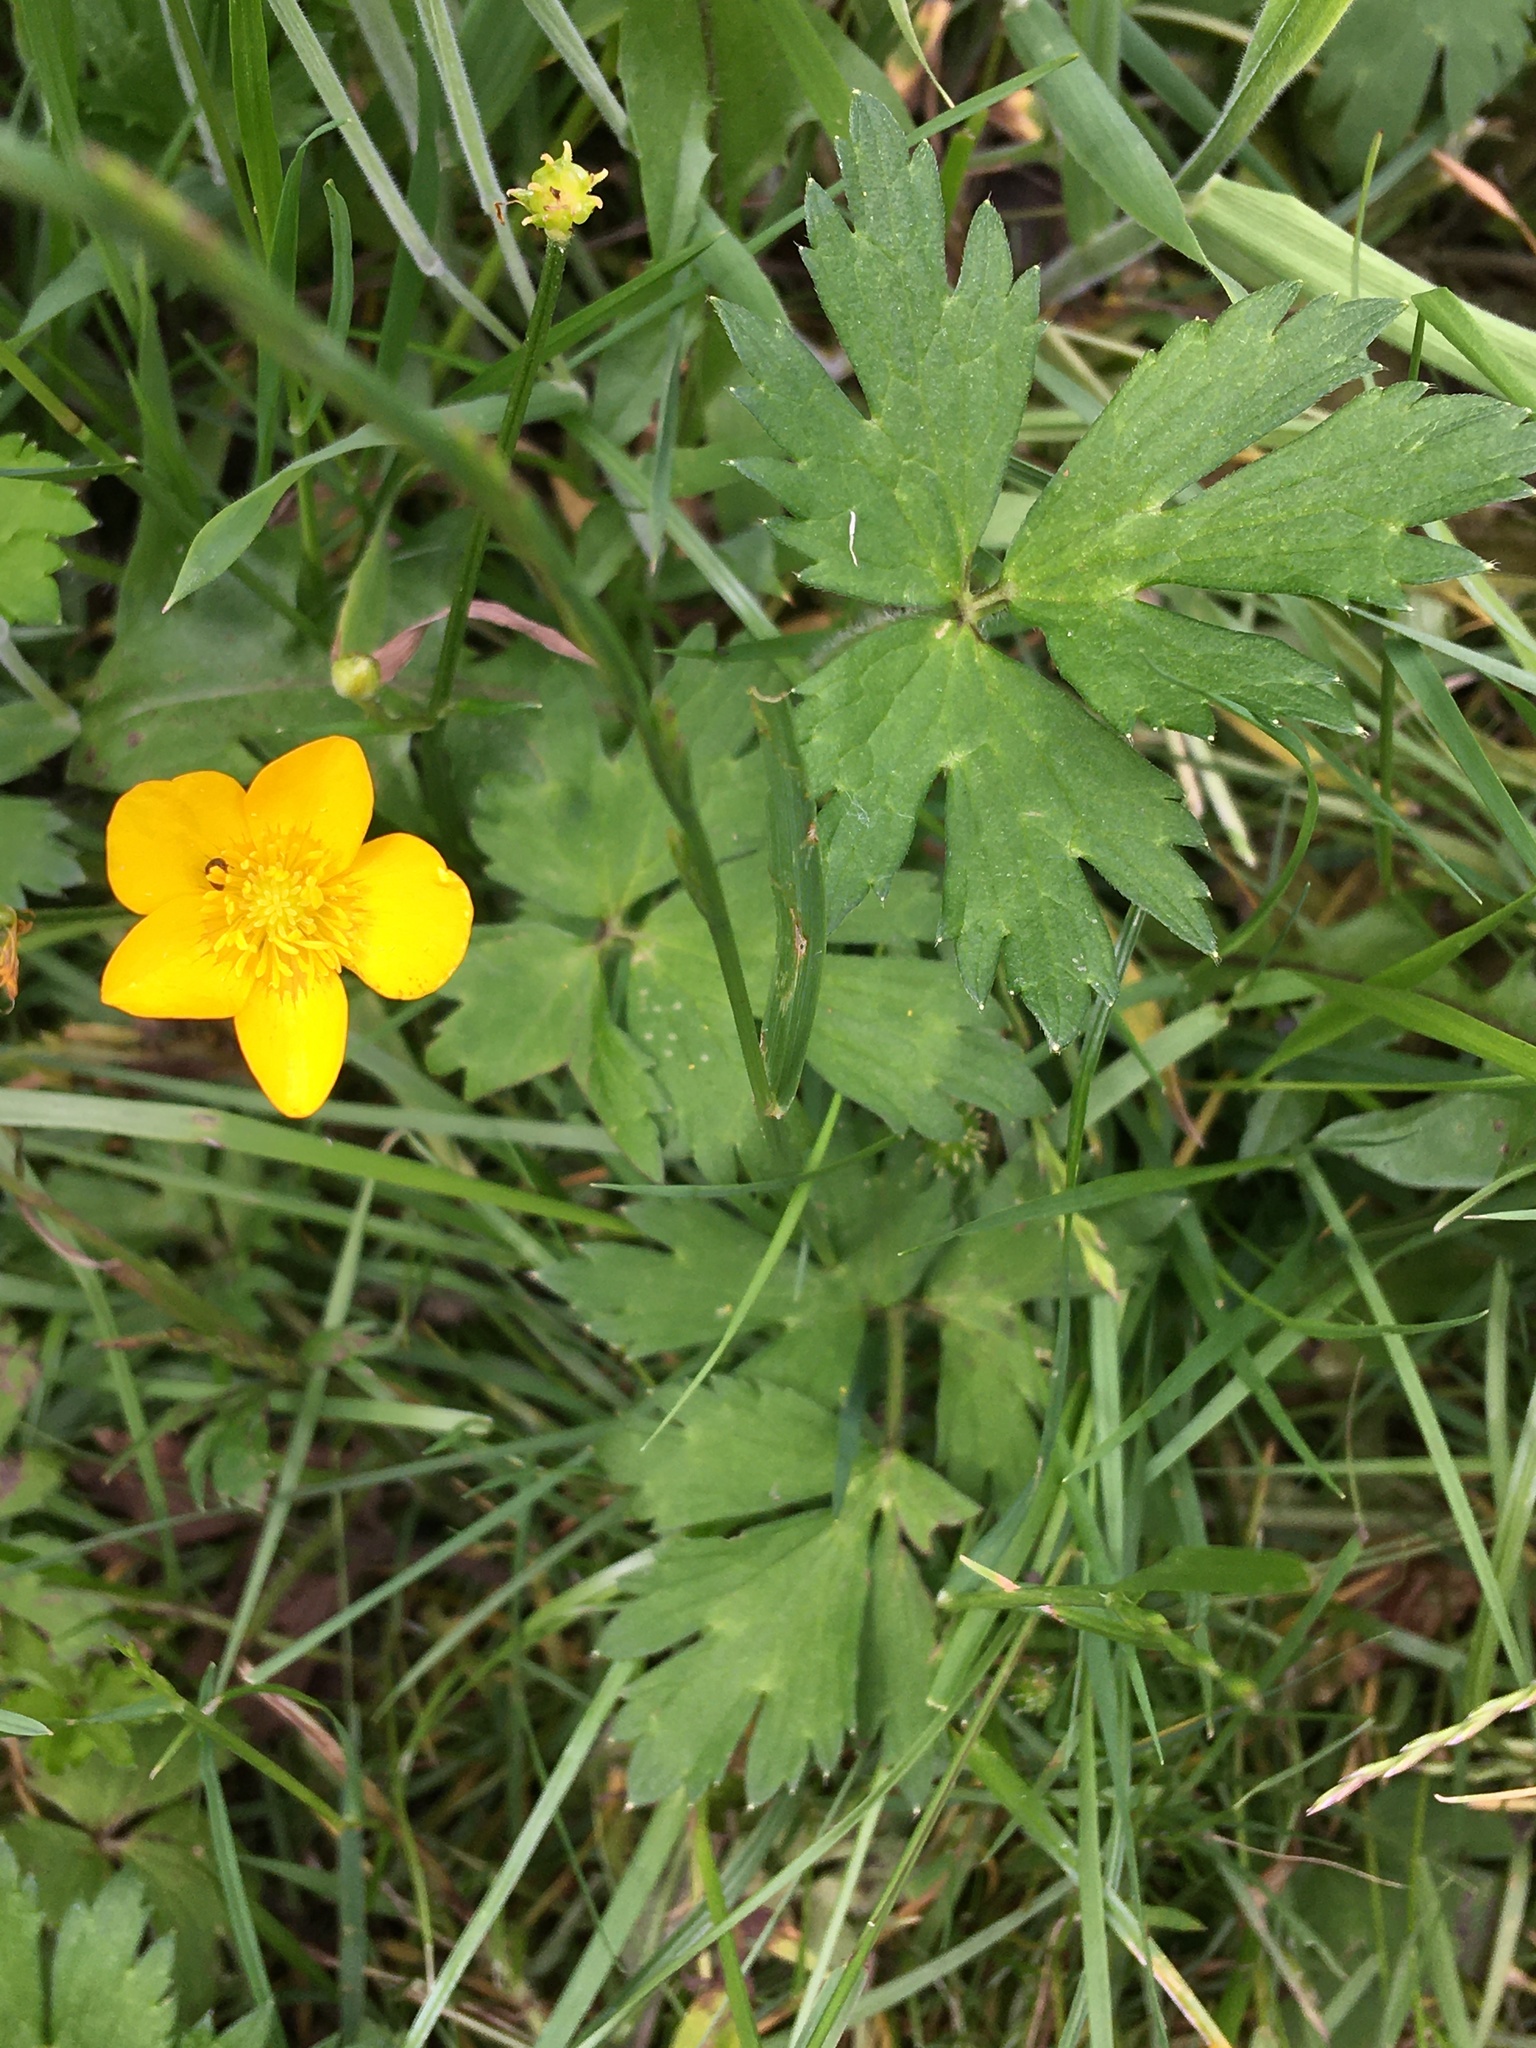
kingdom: Plantae
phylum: Tracheophyta
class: Magnoliopsida
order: Ranunculales
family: Ranunculaceae
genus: Ranunculus
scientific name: Ranunculus repens
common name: Creeping buttercup
